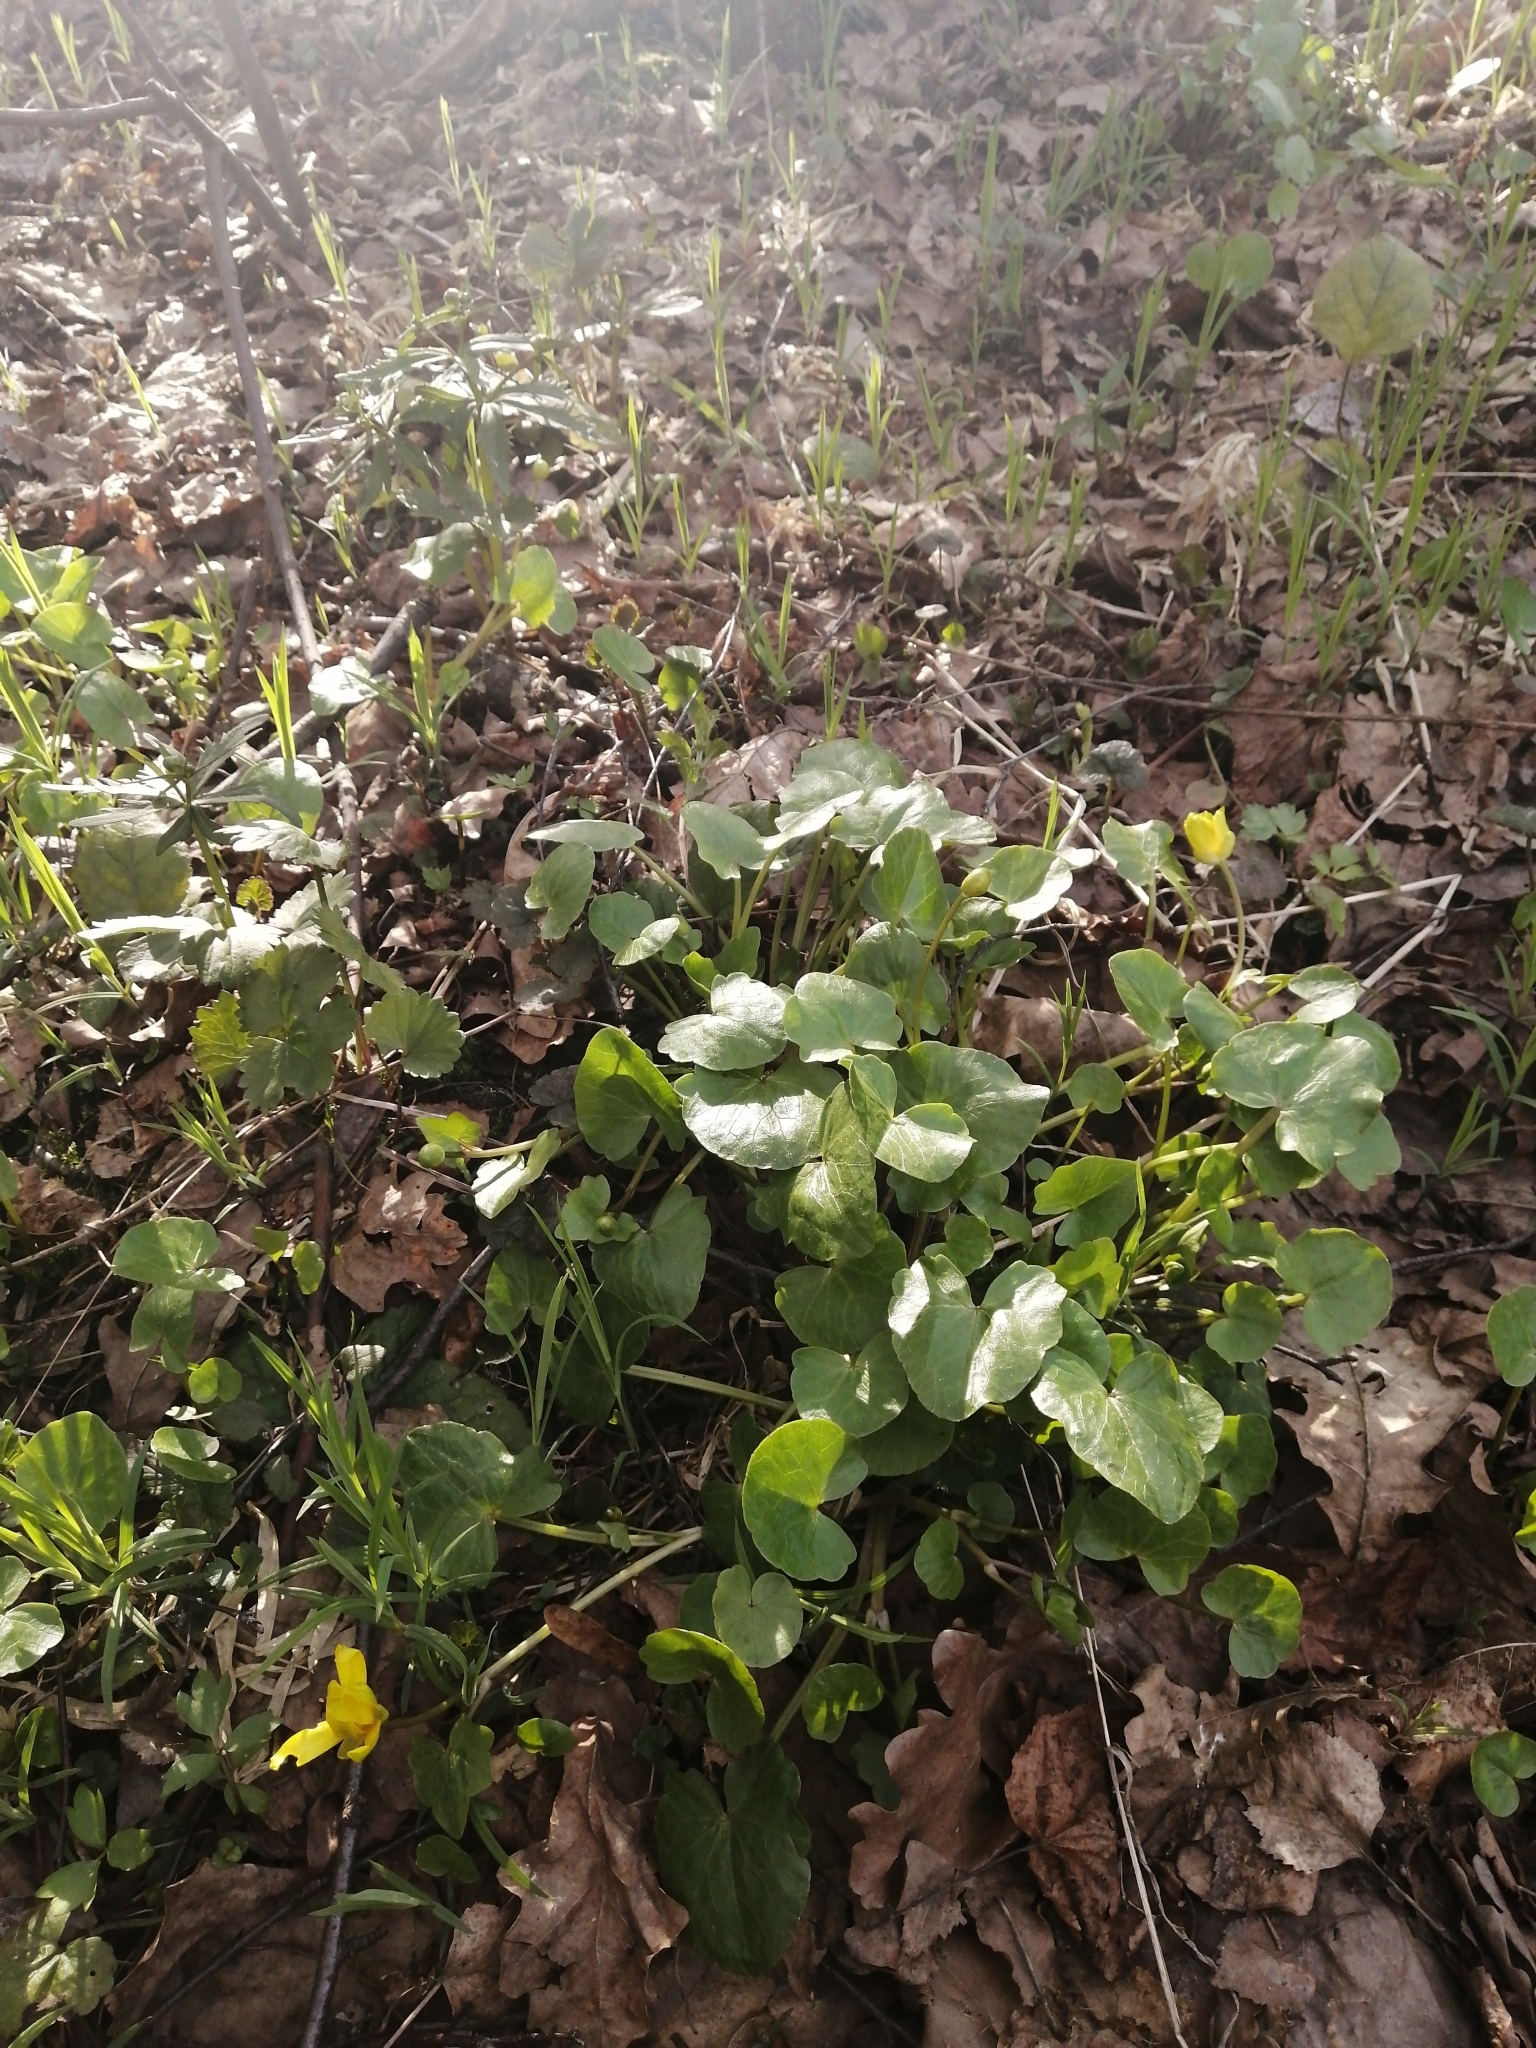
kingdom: Plantae
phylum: Tracheophyta
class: Magnoliopsida
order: Ranunculales
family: Ranunculaceae
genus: Ficaria
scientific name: Ficaria verna
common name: Lesser celandine
